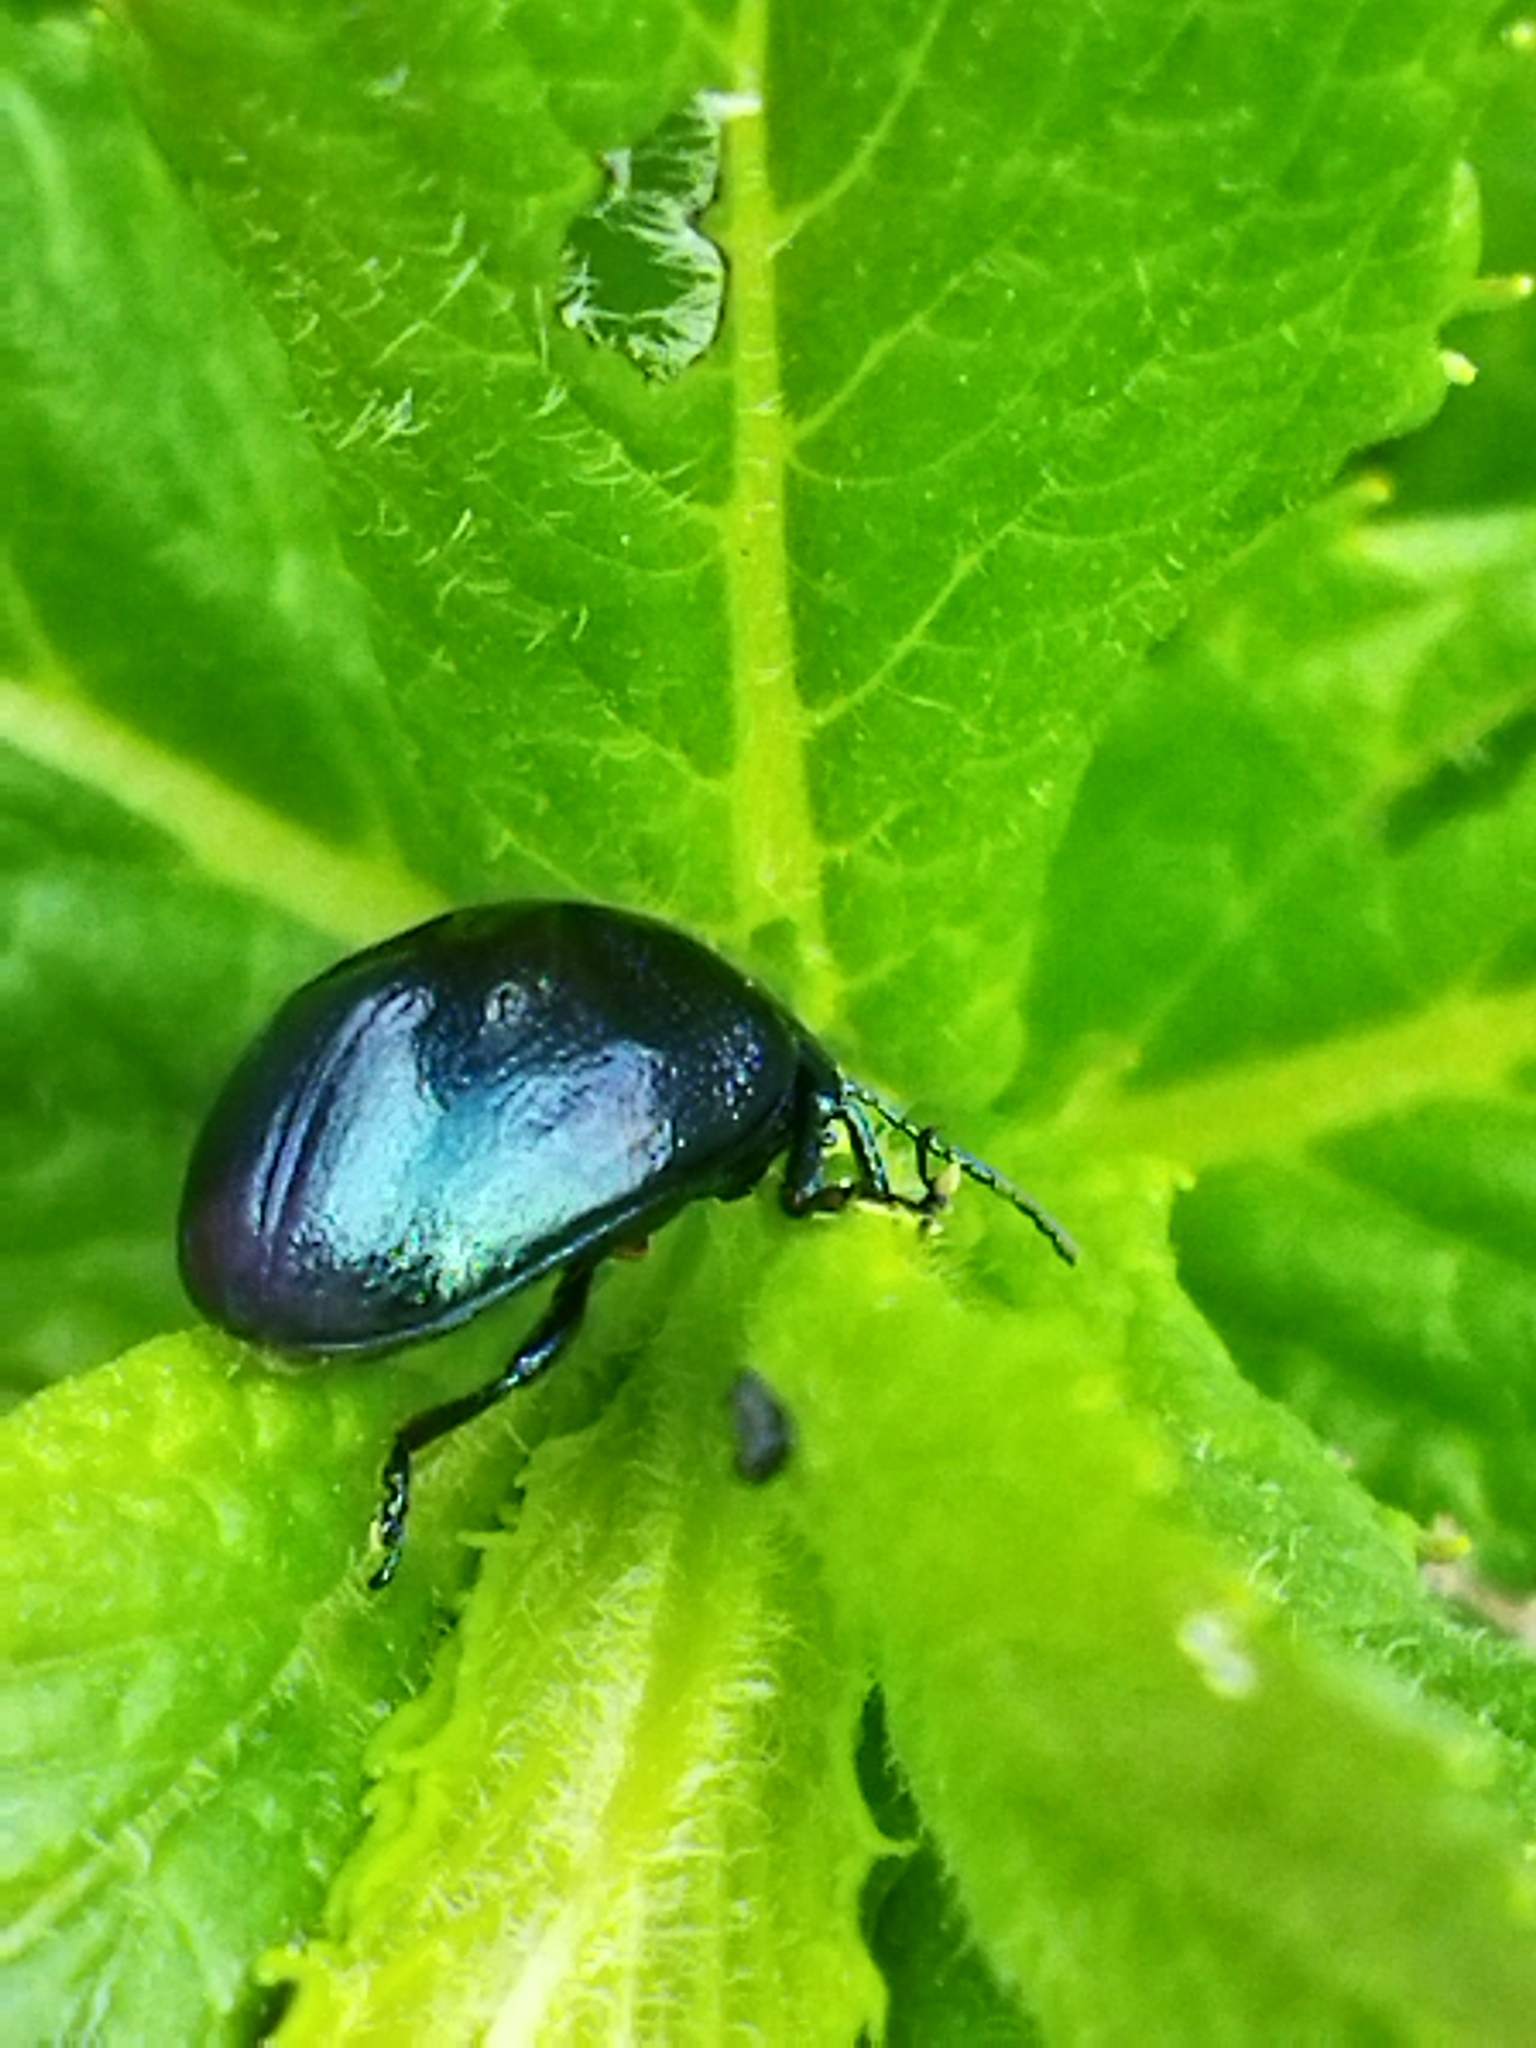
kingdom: Animalia
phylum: Arthropoda
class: Insecta
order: Coleoptera
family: Chrysomelidae
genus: Chrysolina
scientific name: Chrysolina coerulans
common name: Blue mint beetle
